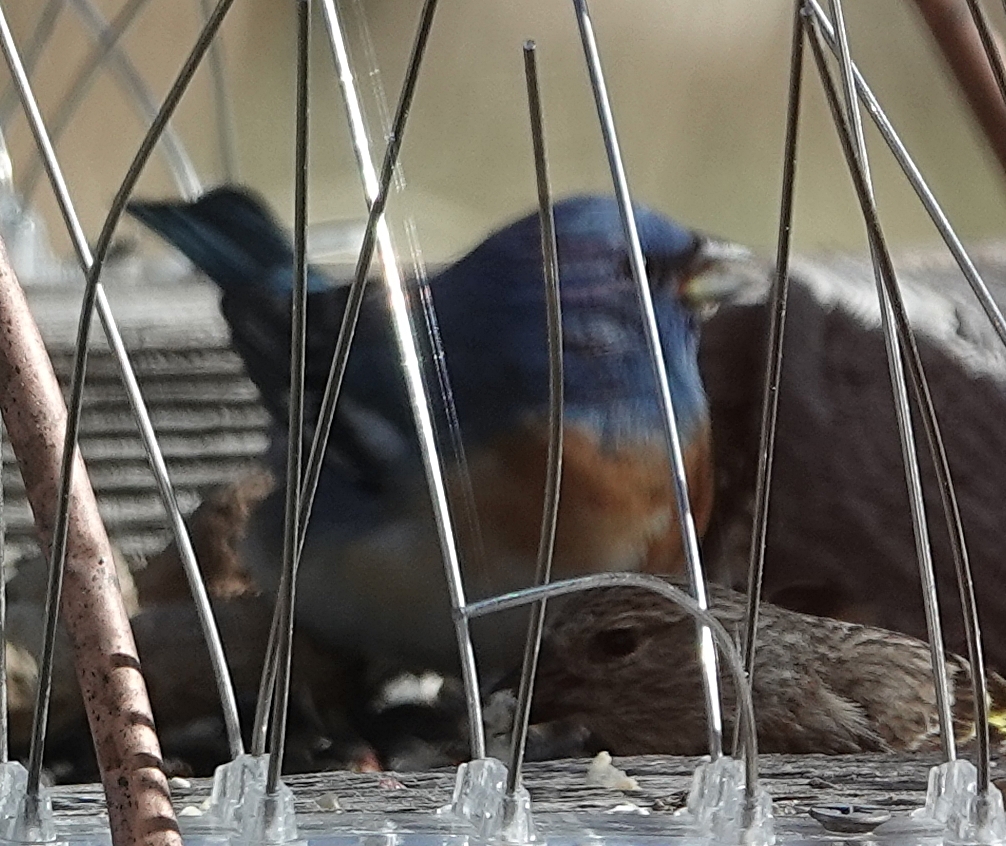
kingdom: Animalia
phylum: Chordata
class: Aves
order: Passeriformes
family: Cardinalidae
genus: Passerina
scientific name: Passerina amoena
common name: Lazuli bunting
